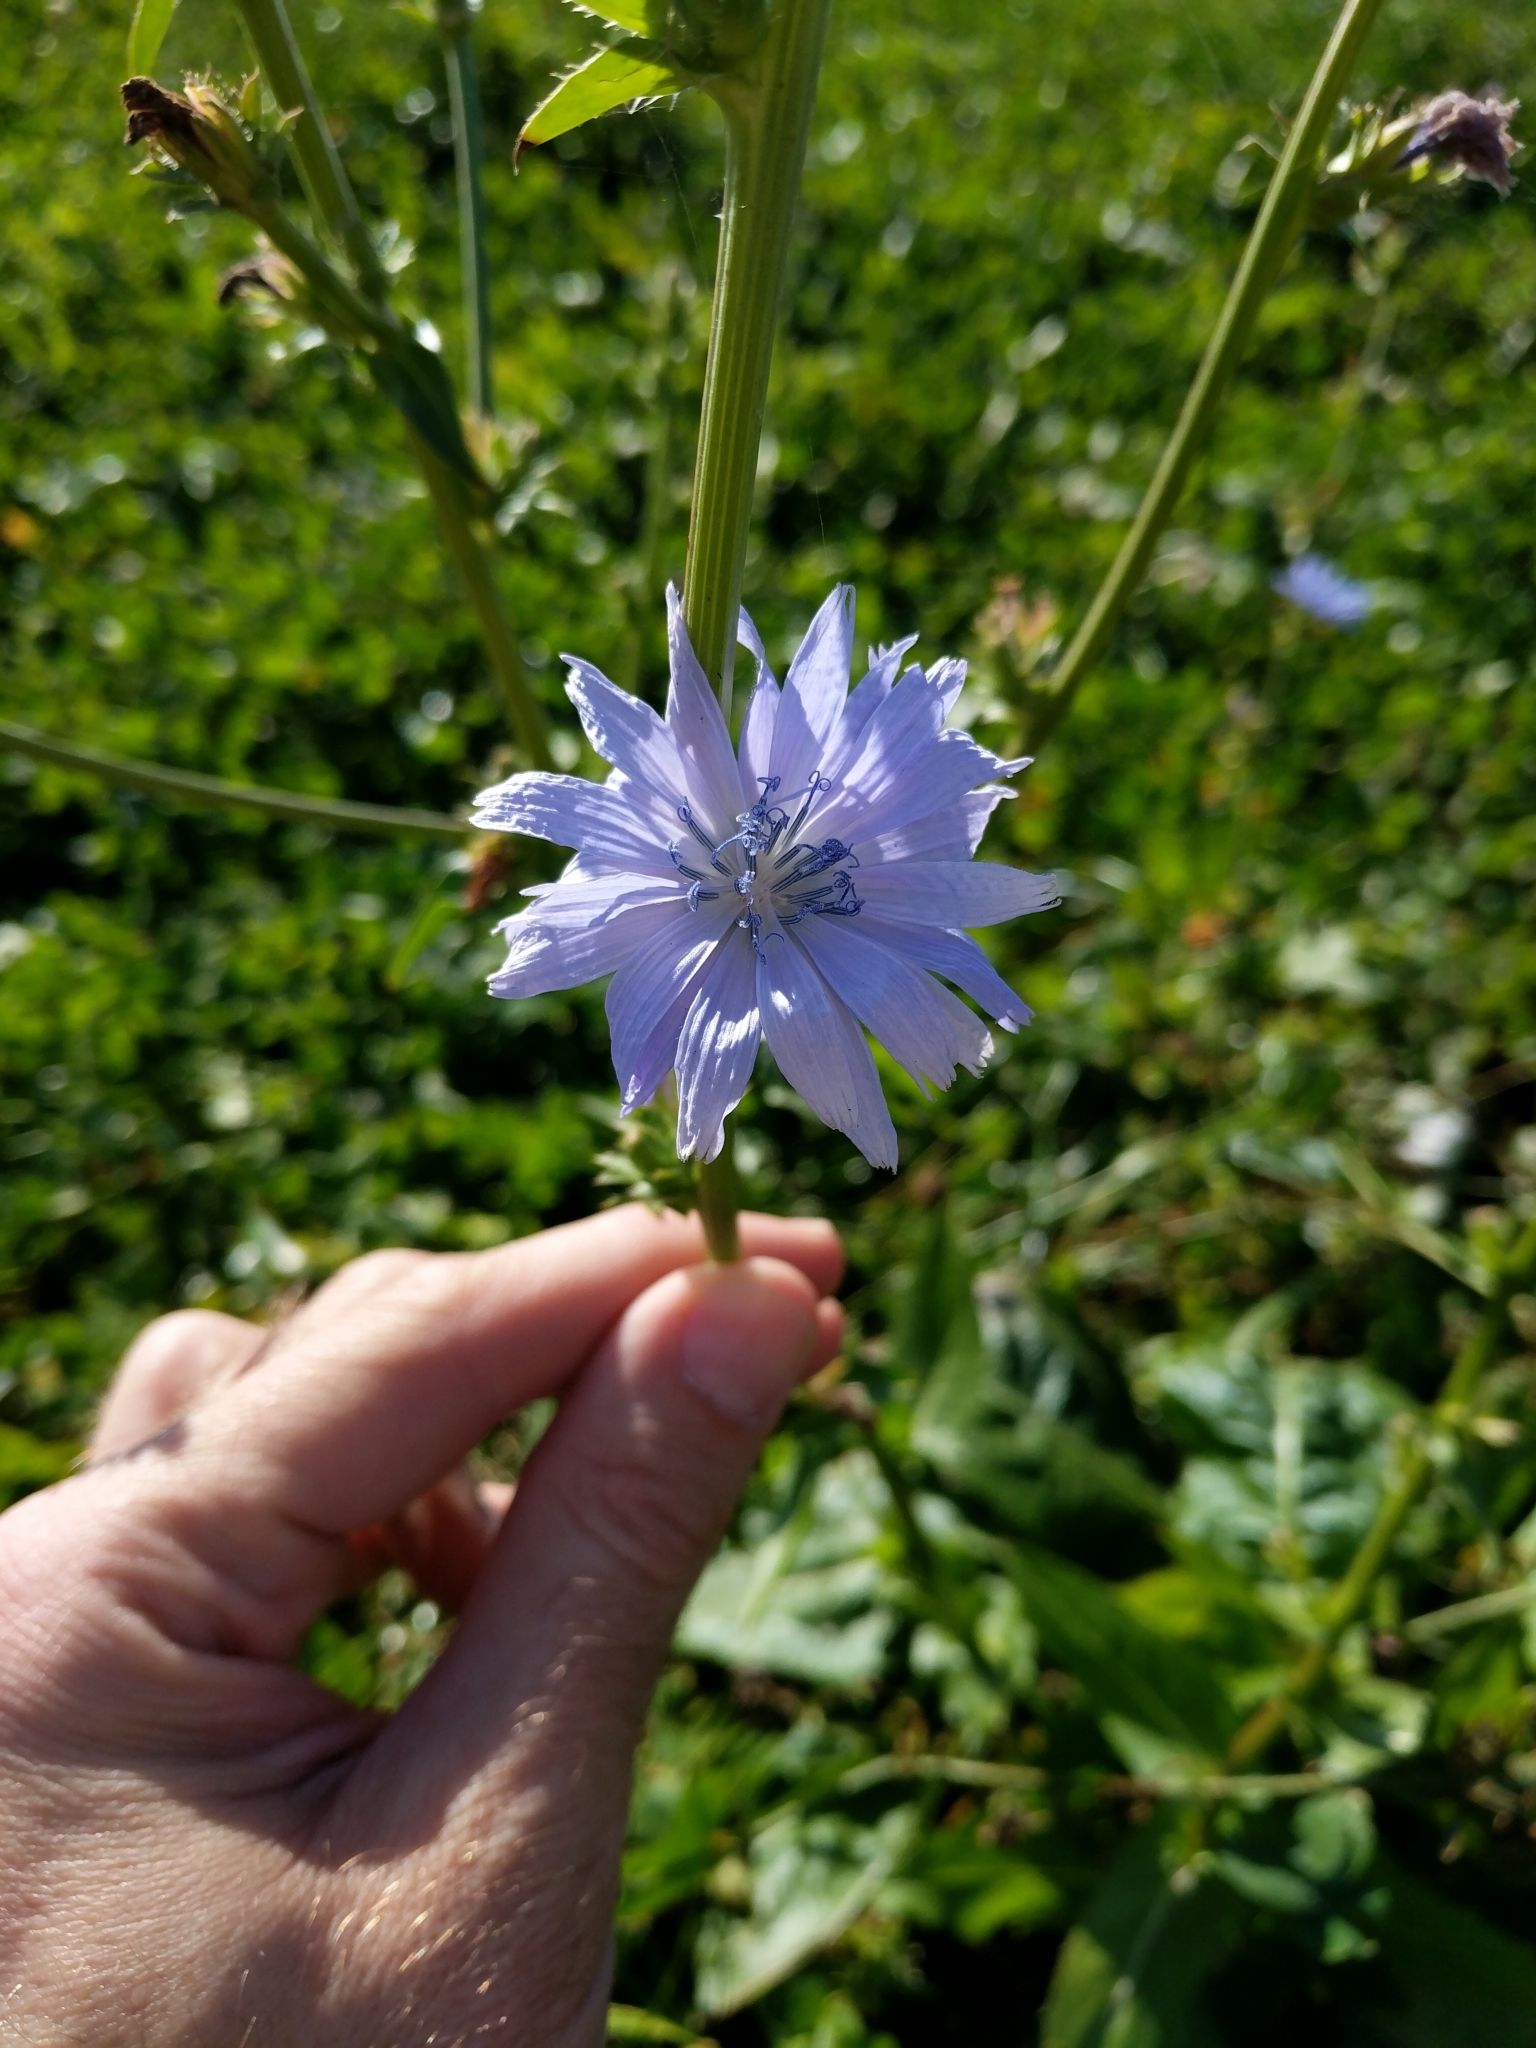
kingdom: Plantae
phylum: Tracheophyta
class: Magnoliopsida
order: Asterales
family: Asteraceae
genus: Cichorium
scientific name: Cichorium intybus
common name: Chicory
